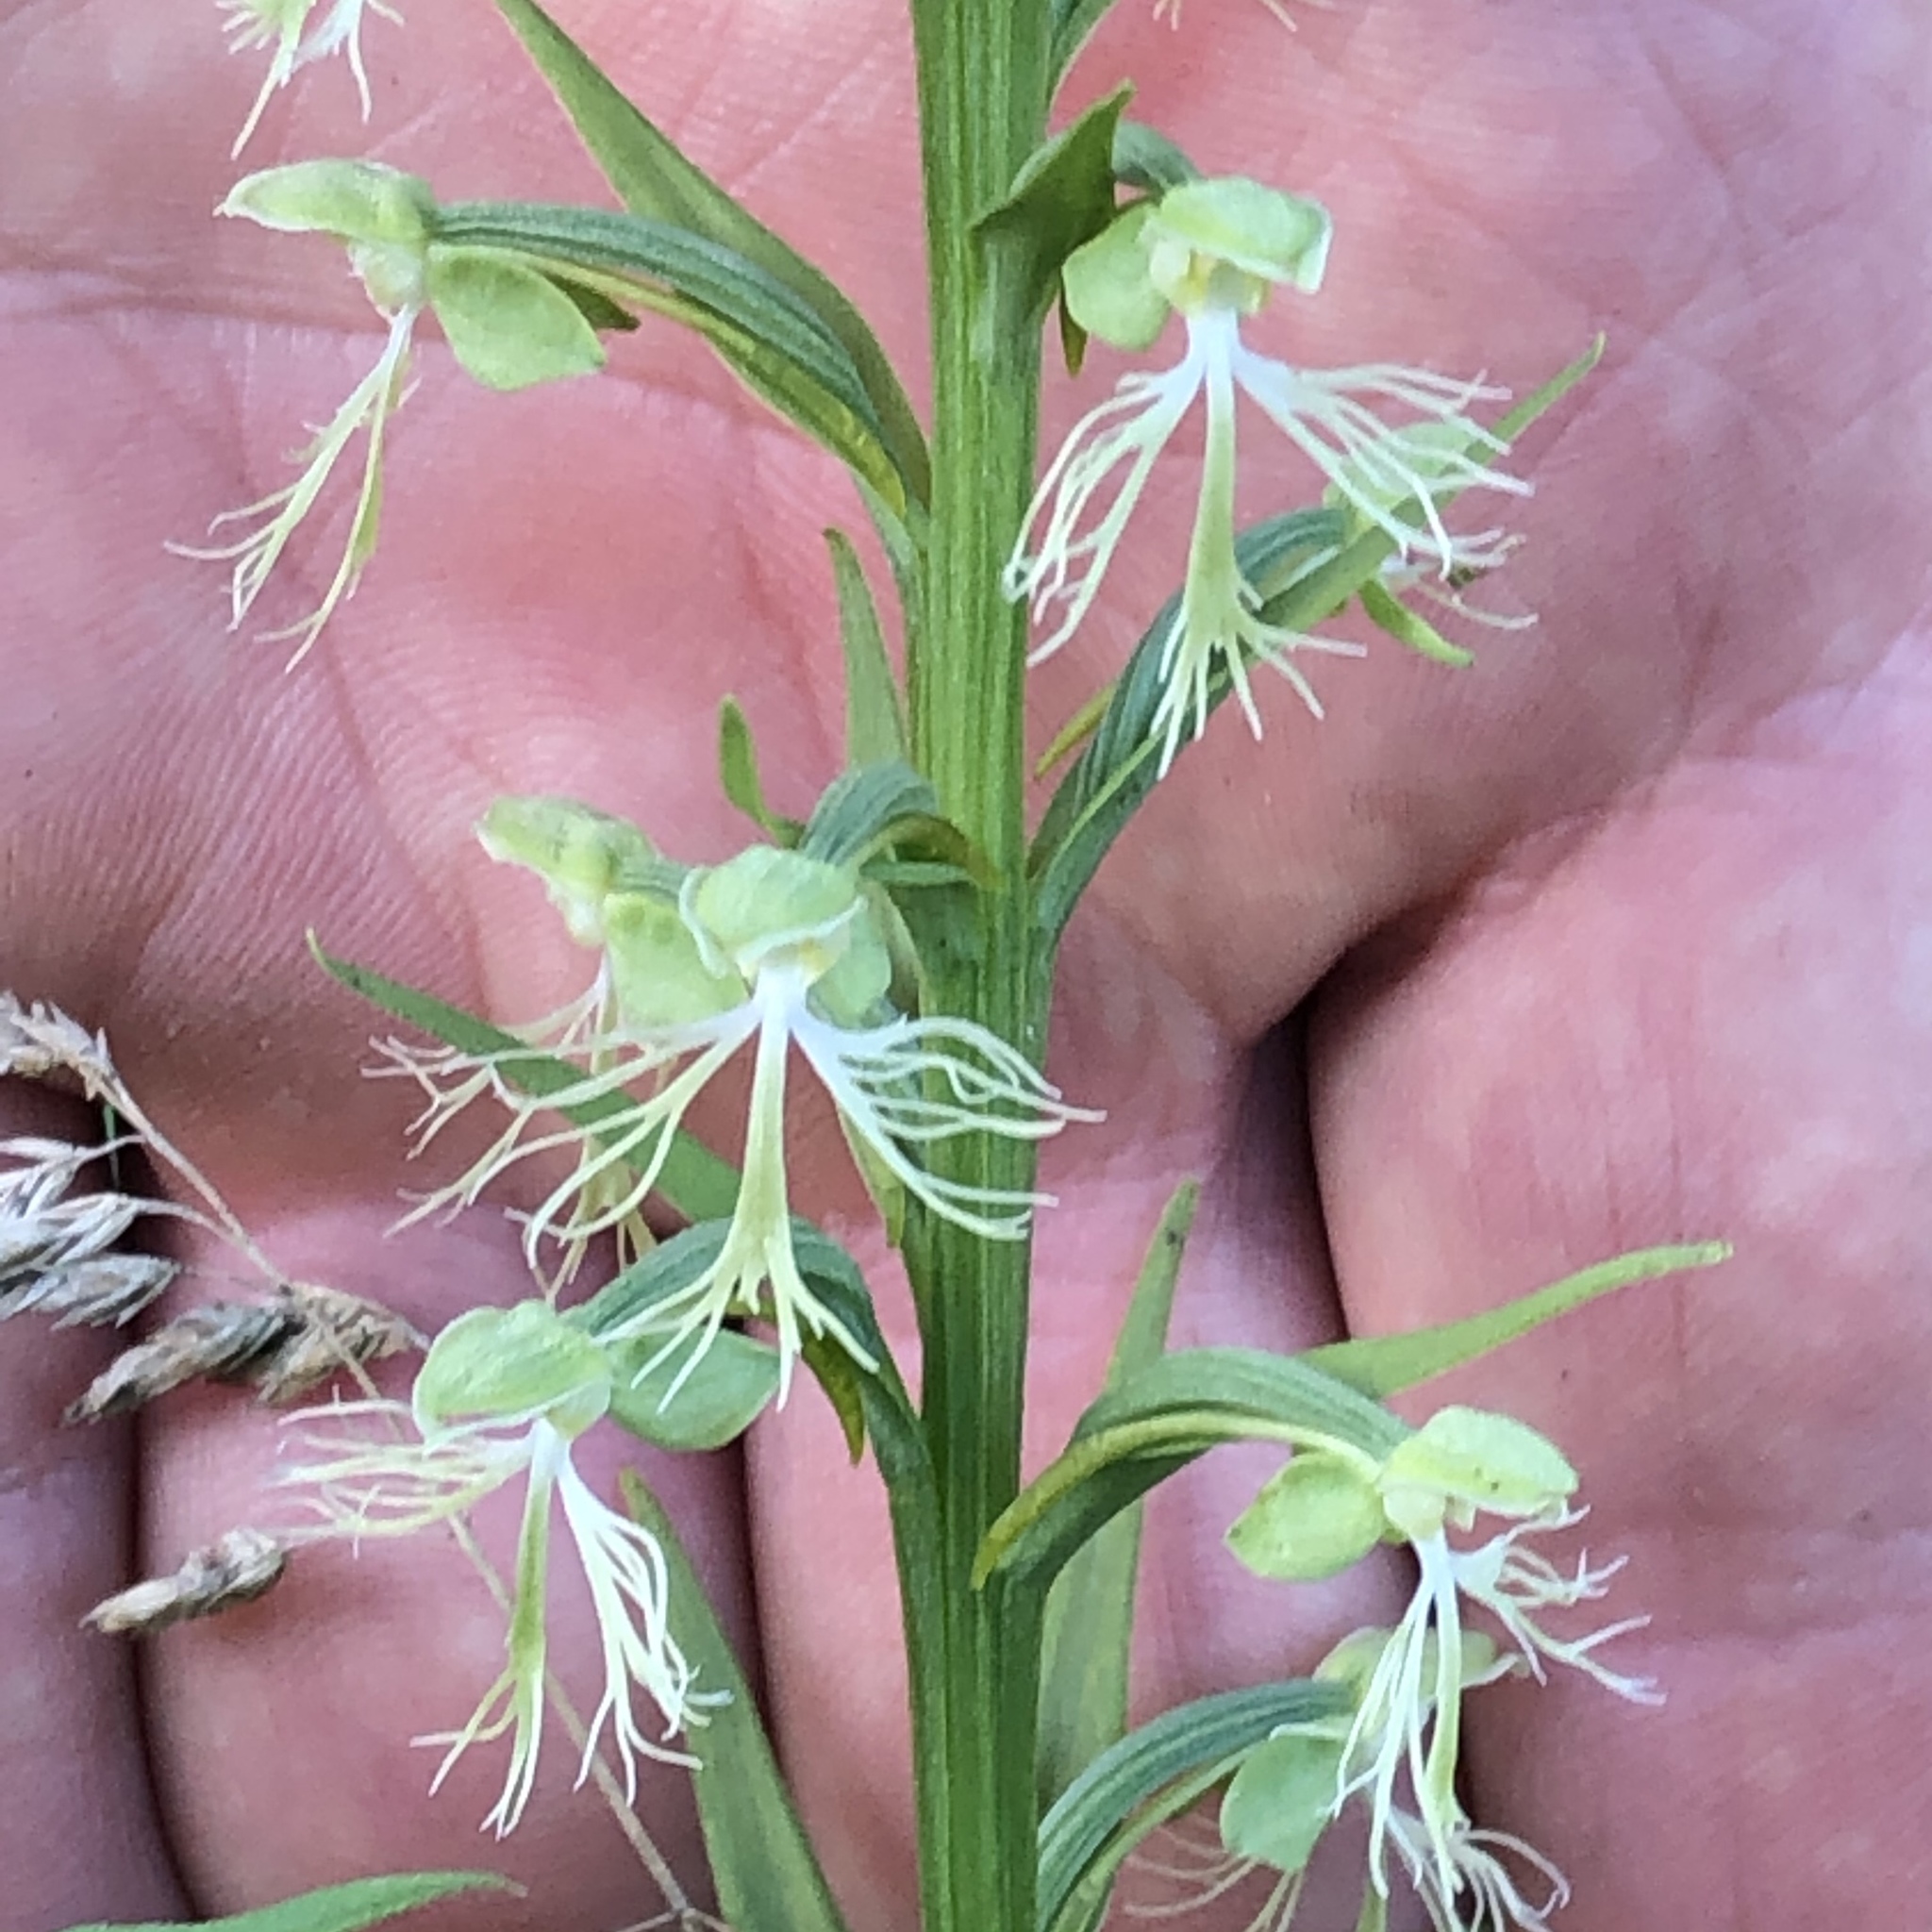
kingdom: Plantae
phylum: Tracheophyta
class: Liliopsida
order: Asparagales
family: Orchidaceae
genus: Platanthera
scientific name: Platanthera lacera
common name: Green fringed orchid
